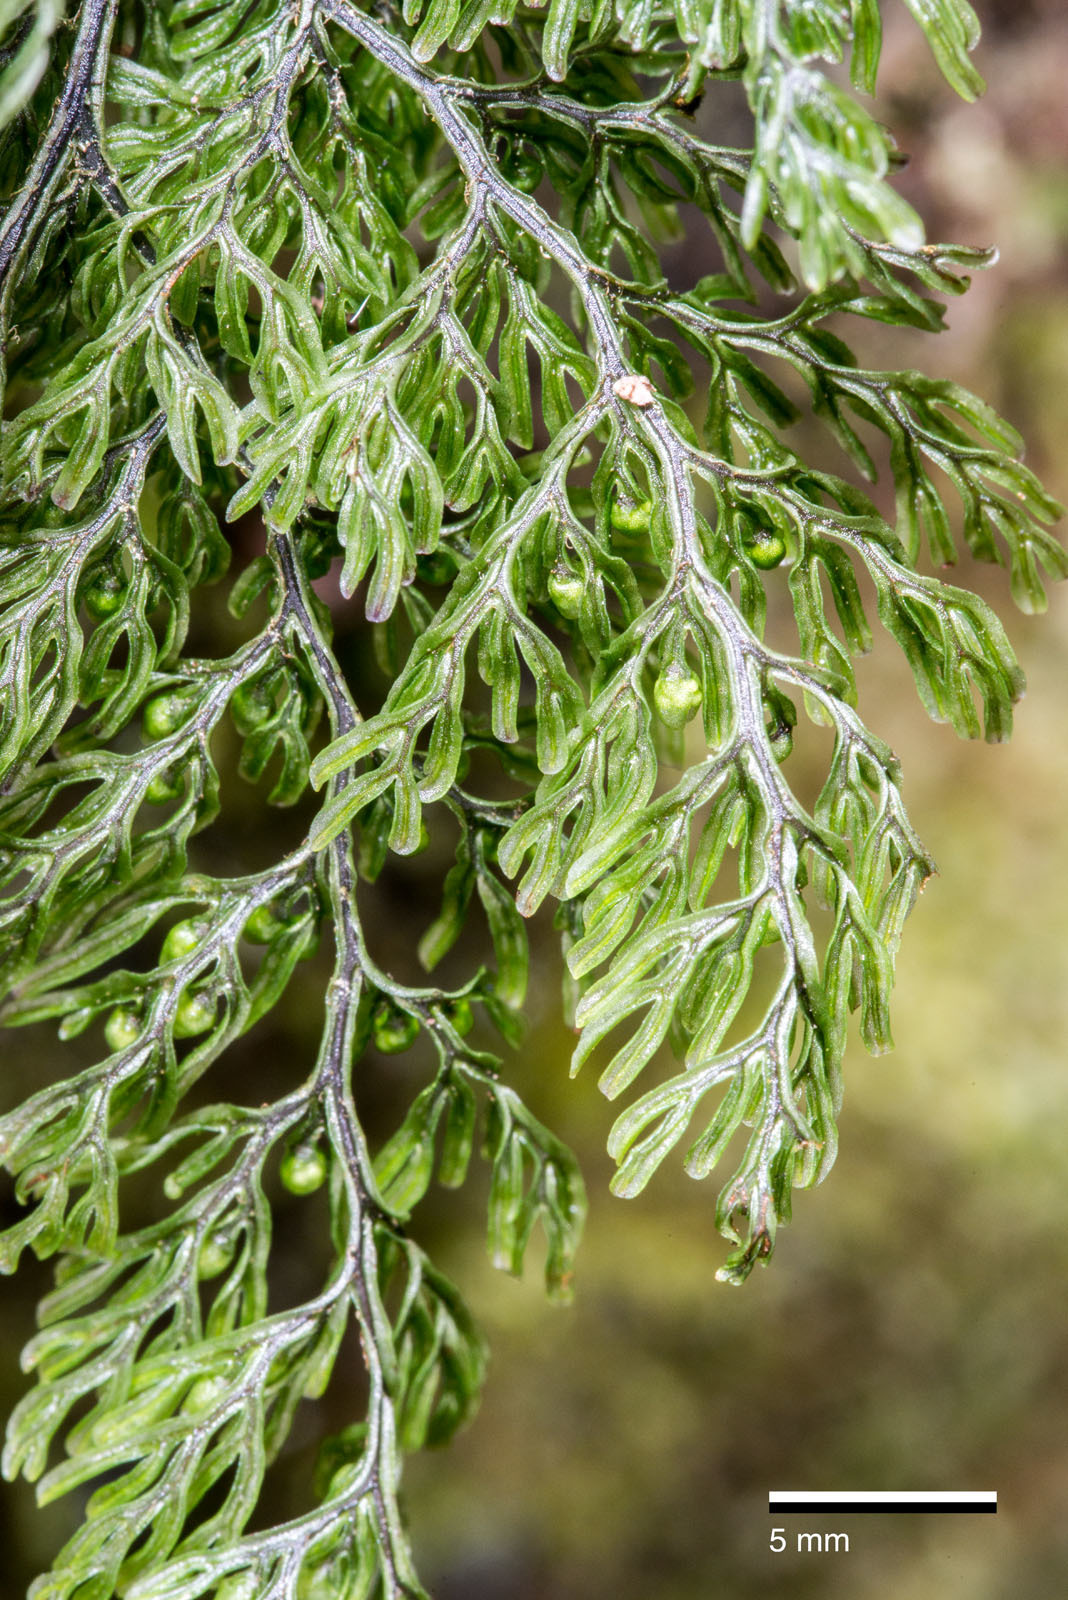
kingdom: Plantae
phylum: Tracheophyta
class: Polypodiopsida
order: Hymenophyllales
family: Hymenophyllaceae
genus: Hymenophyllum
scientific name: Hymenophyllum villosum
